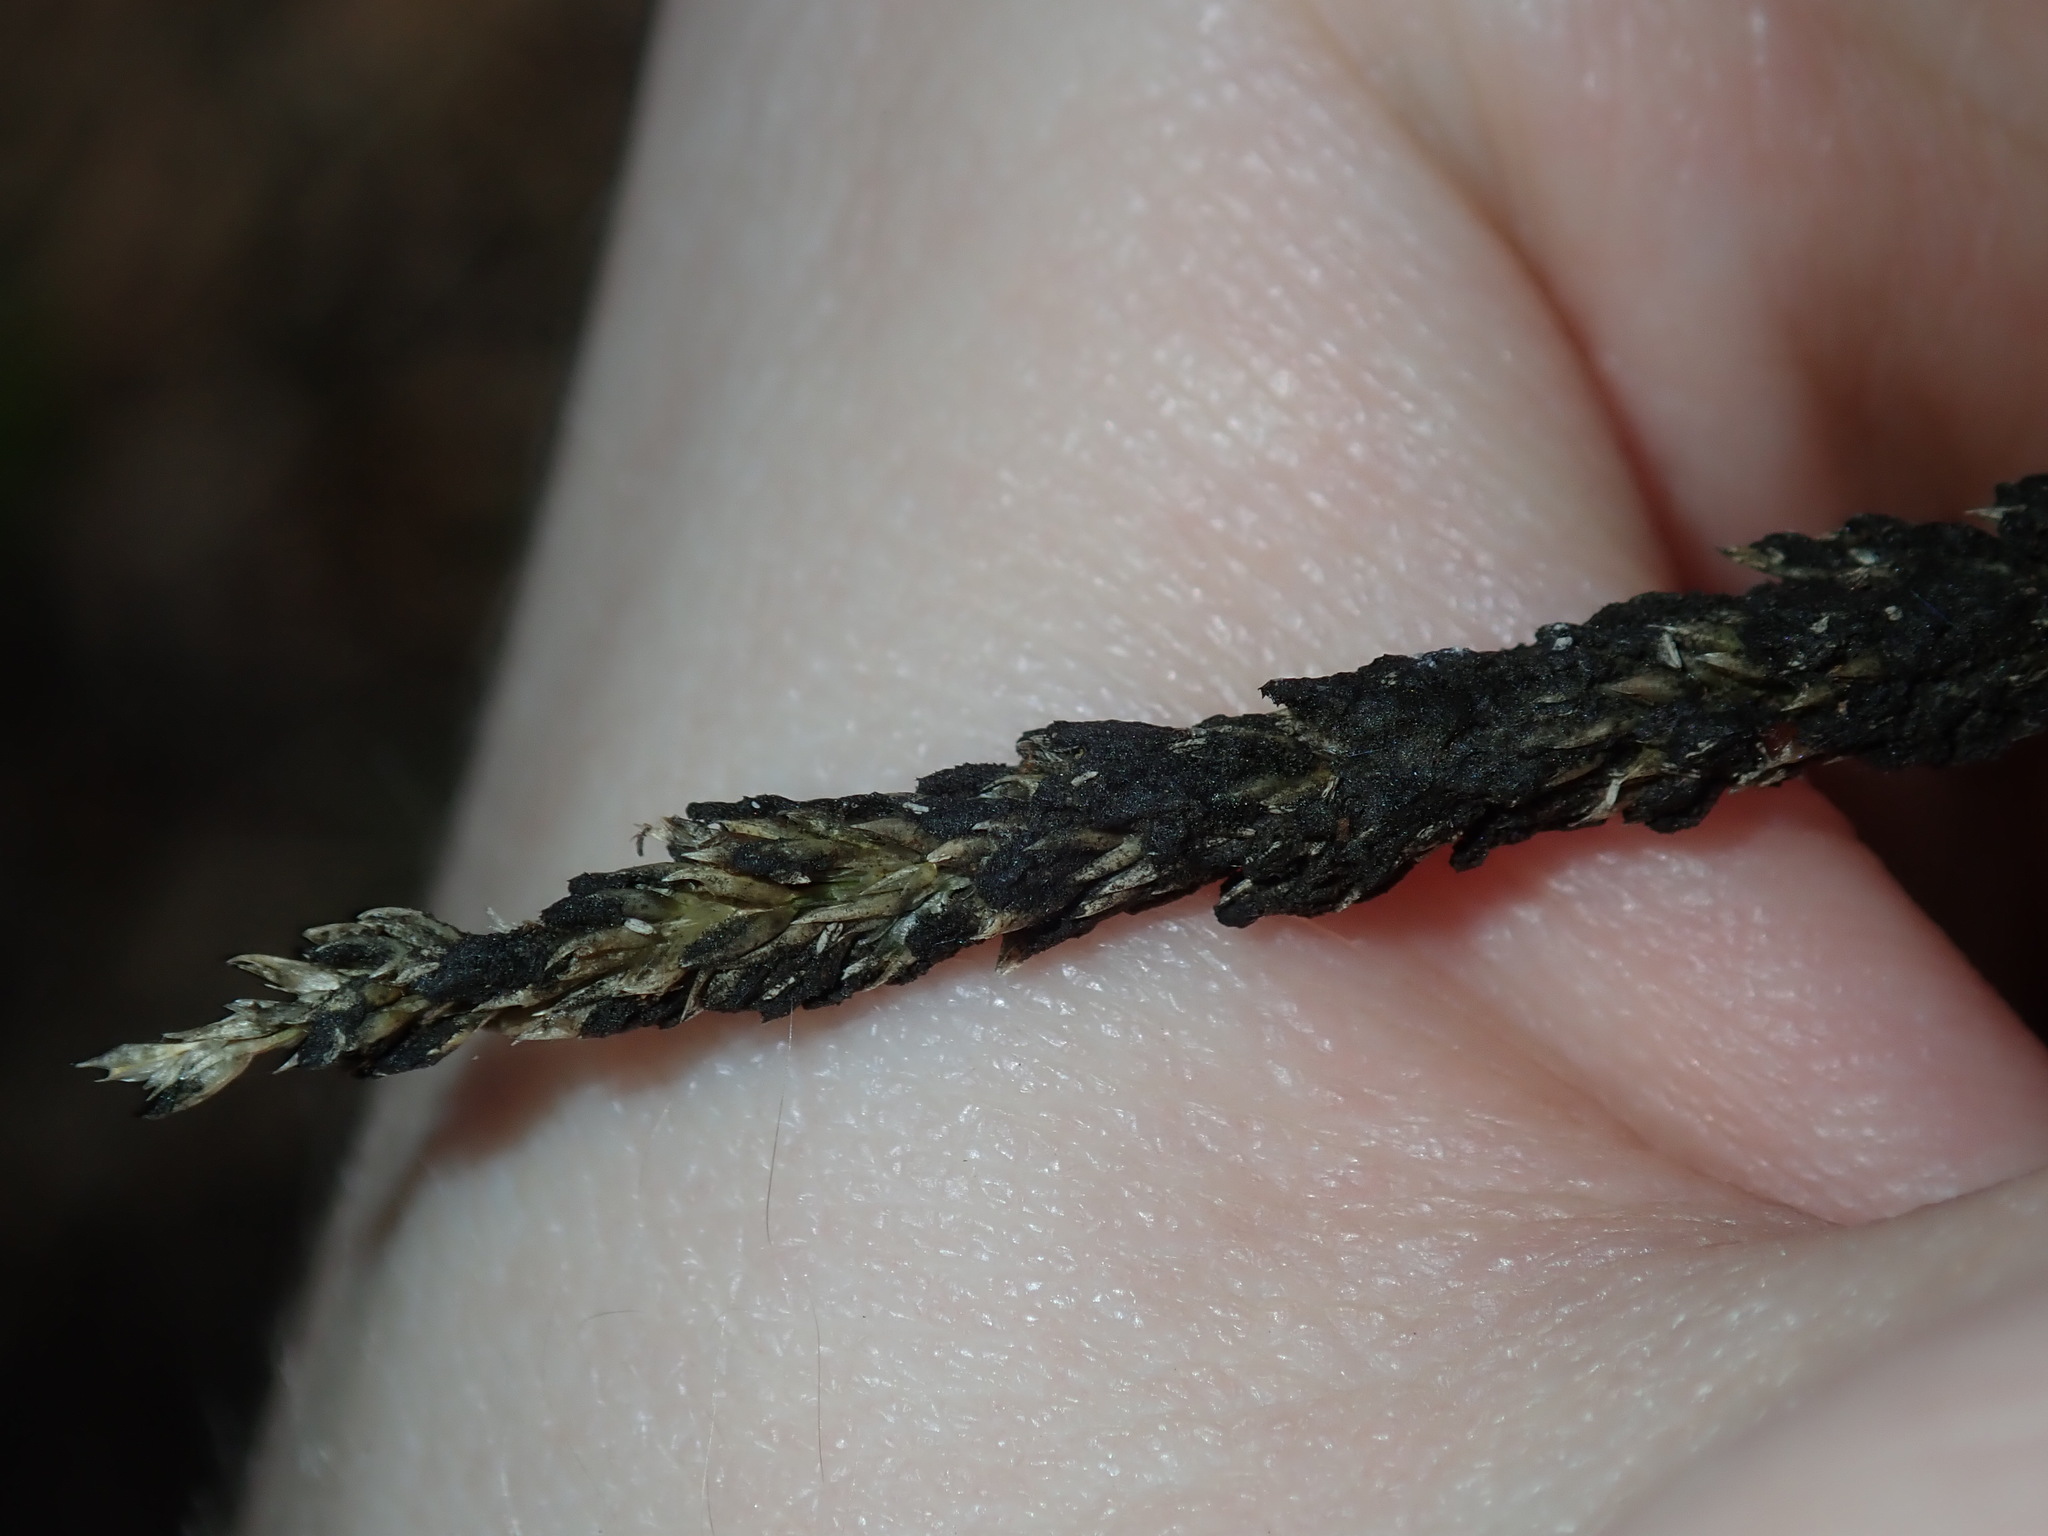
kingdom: Plantae
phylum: Tracheophyta
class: Liliopsida
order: Poales
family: Poaceae
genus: Sporobolus
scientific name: Sporobolus africanus
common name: African dropseed
